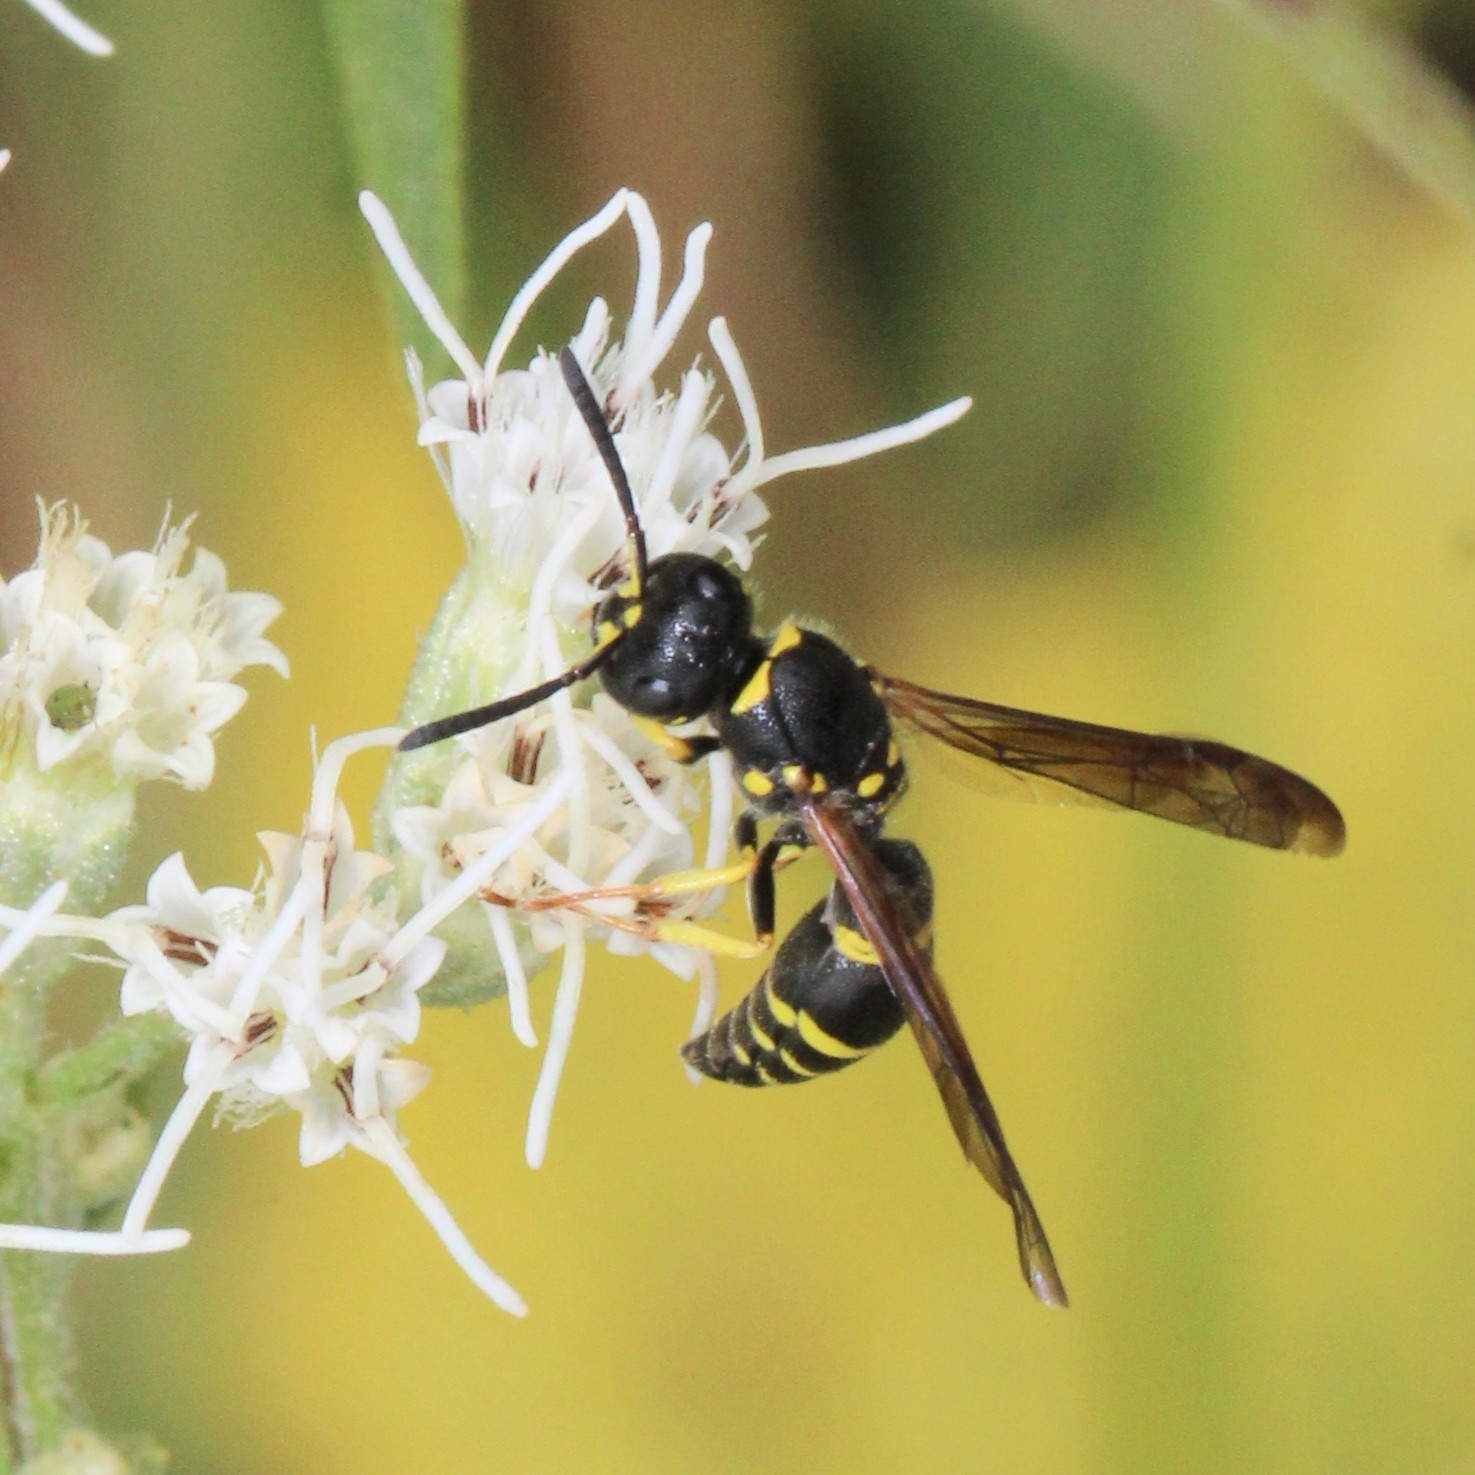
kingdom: Animalia
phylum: Arthropoda
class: Insecta
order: Hymenoptera
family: Vespidae
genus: Ancistrocerus
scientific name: Ancistrocerus adiabatus
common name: Bramble mason wasp
